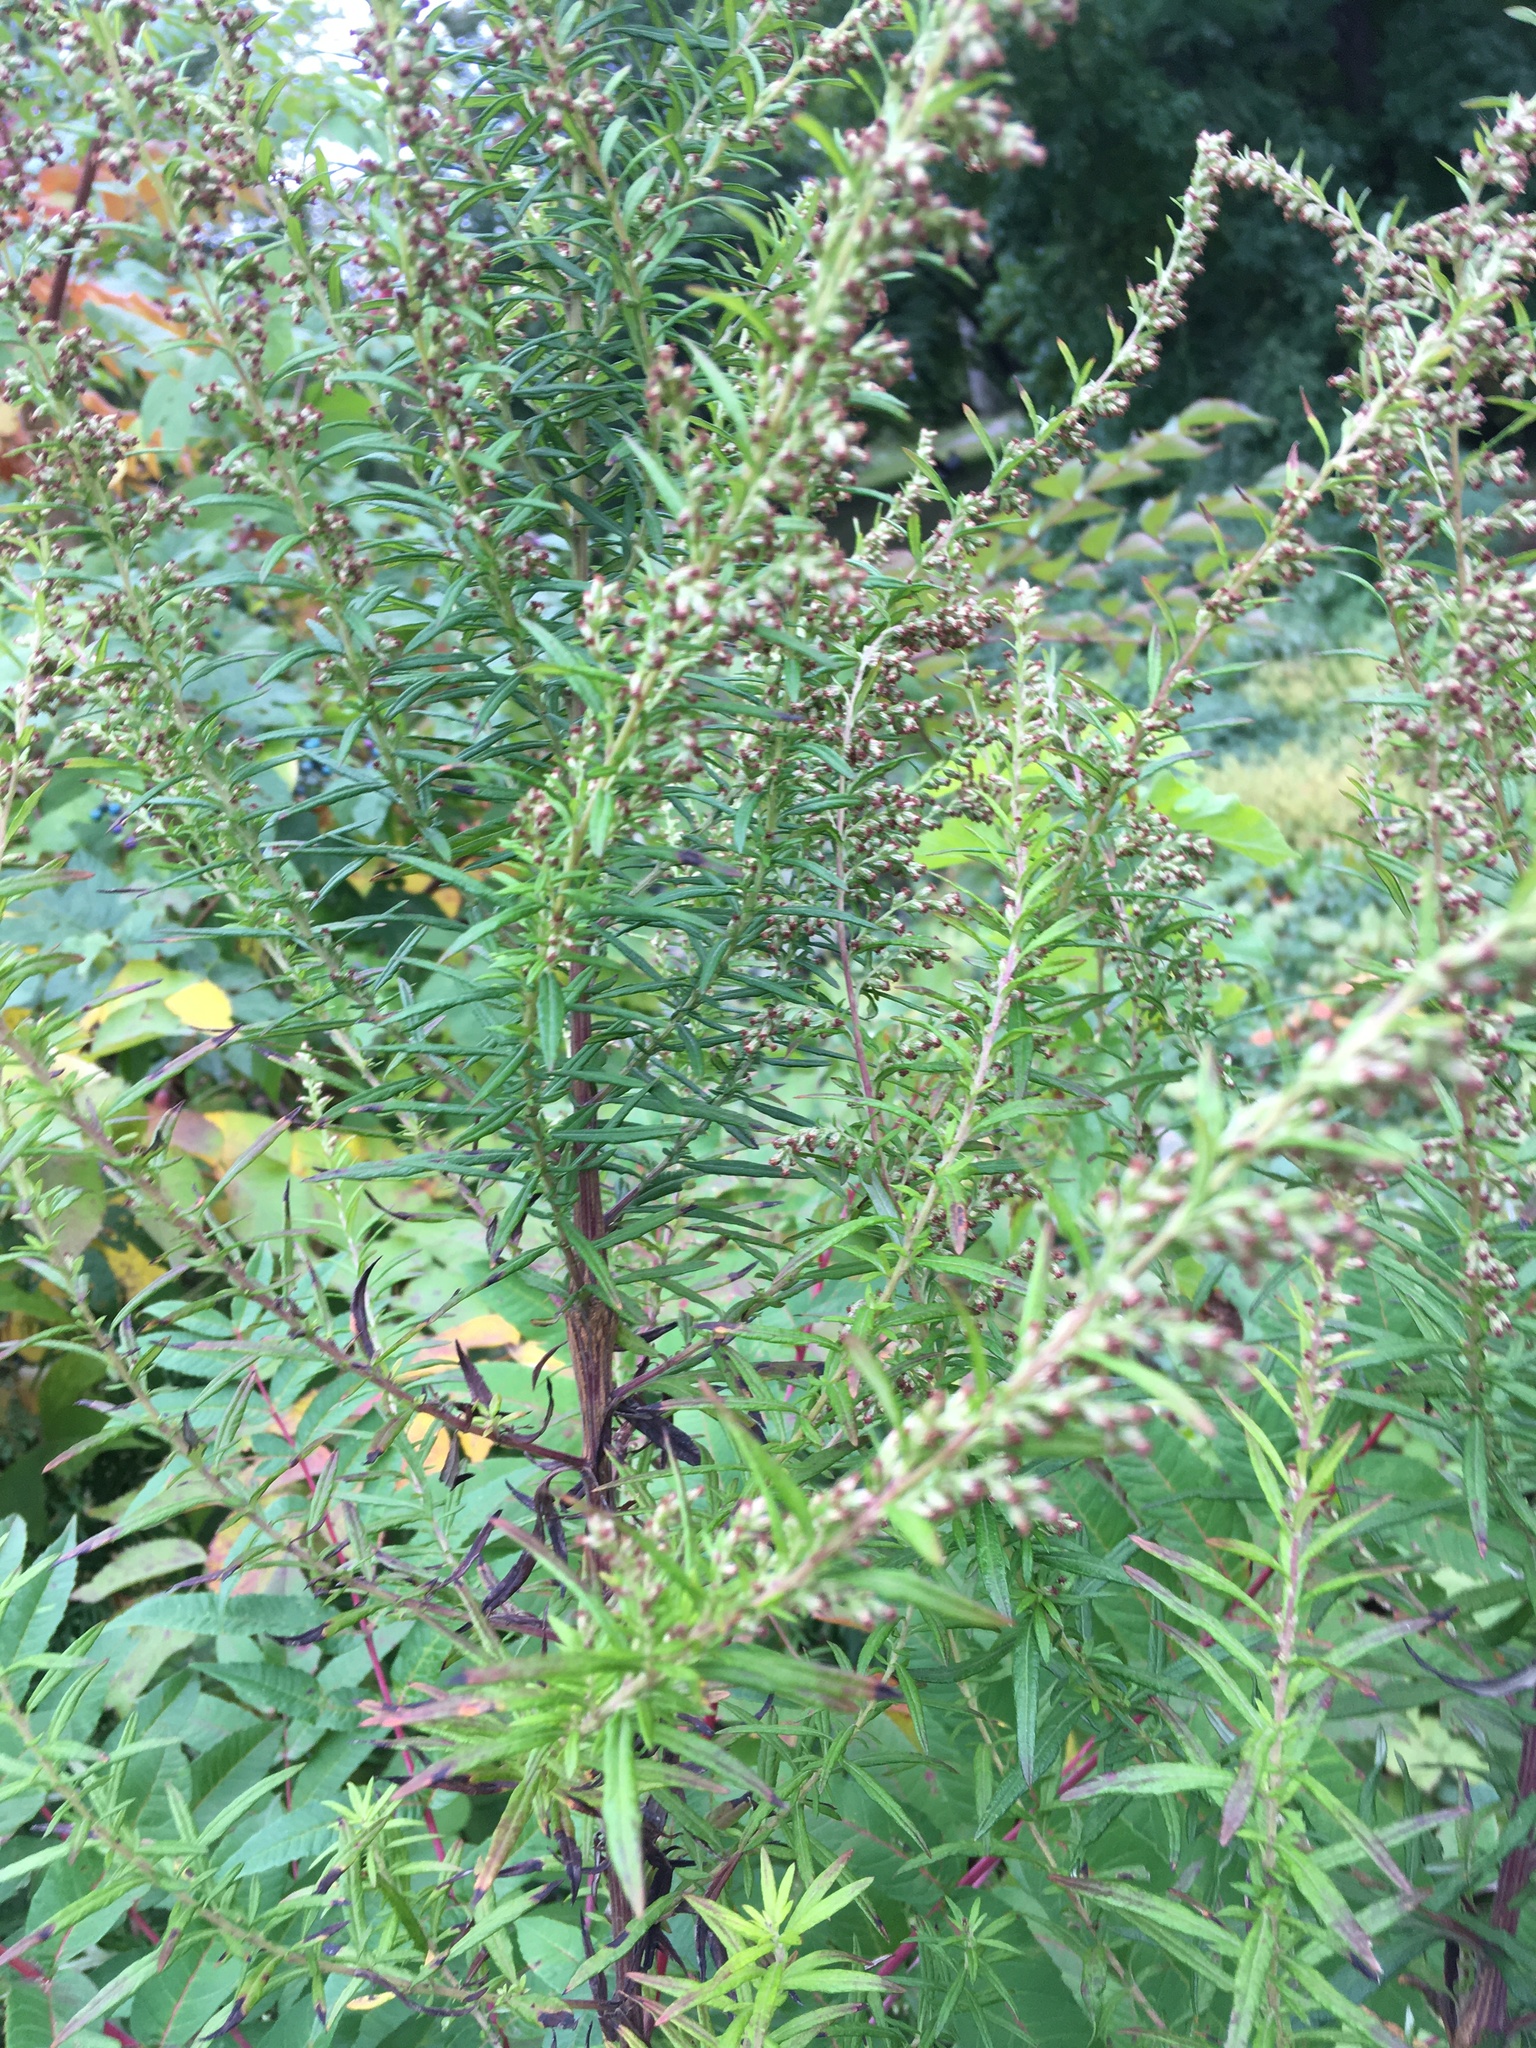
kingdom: Plantae
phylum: Tracheophyta
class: Magnoliopsida
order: Asterales
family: Asteraceae
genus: Artemisia
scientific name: Artemisia vulgaris
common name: Mugwort
